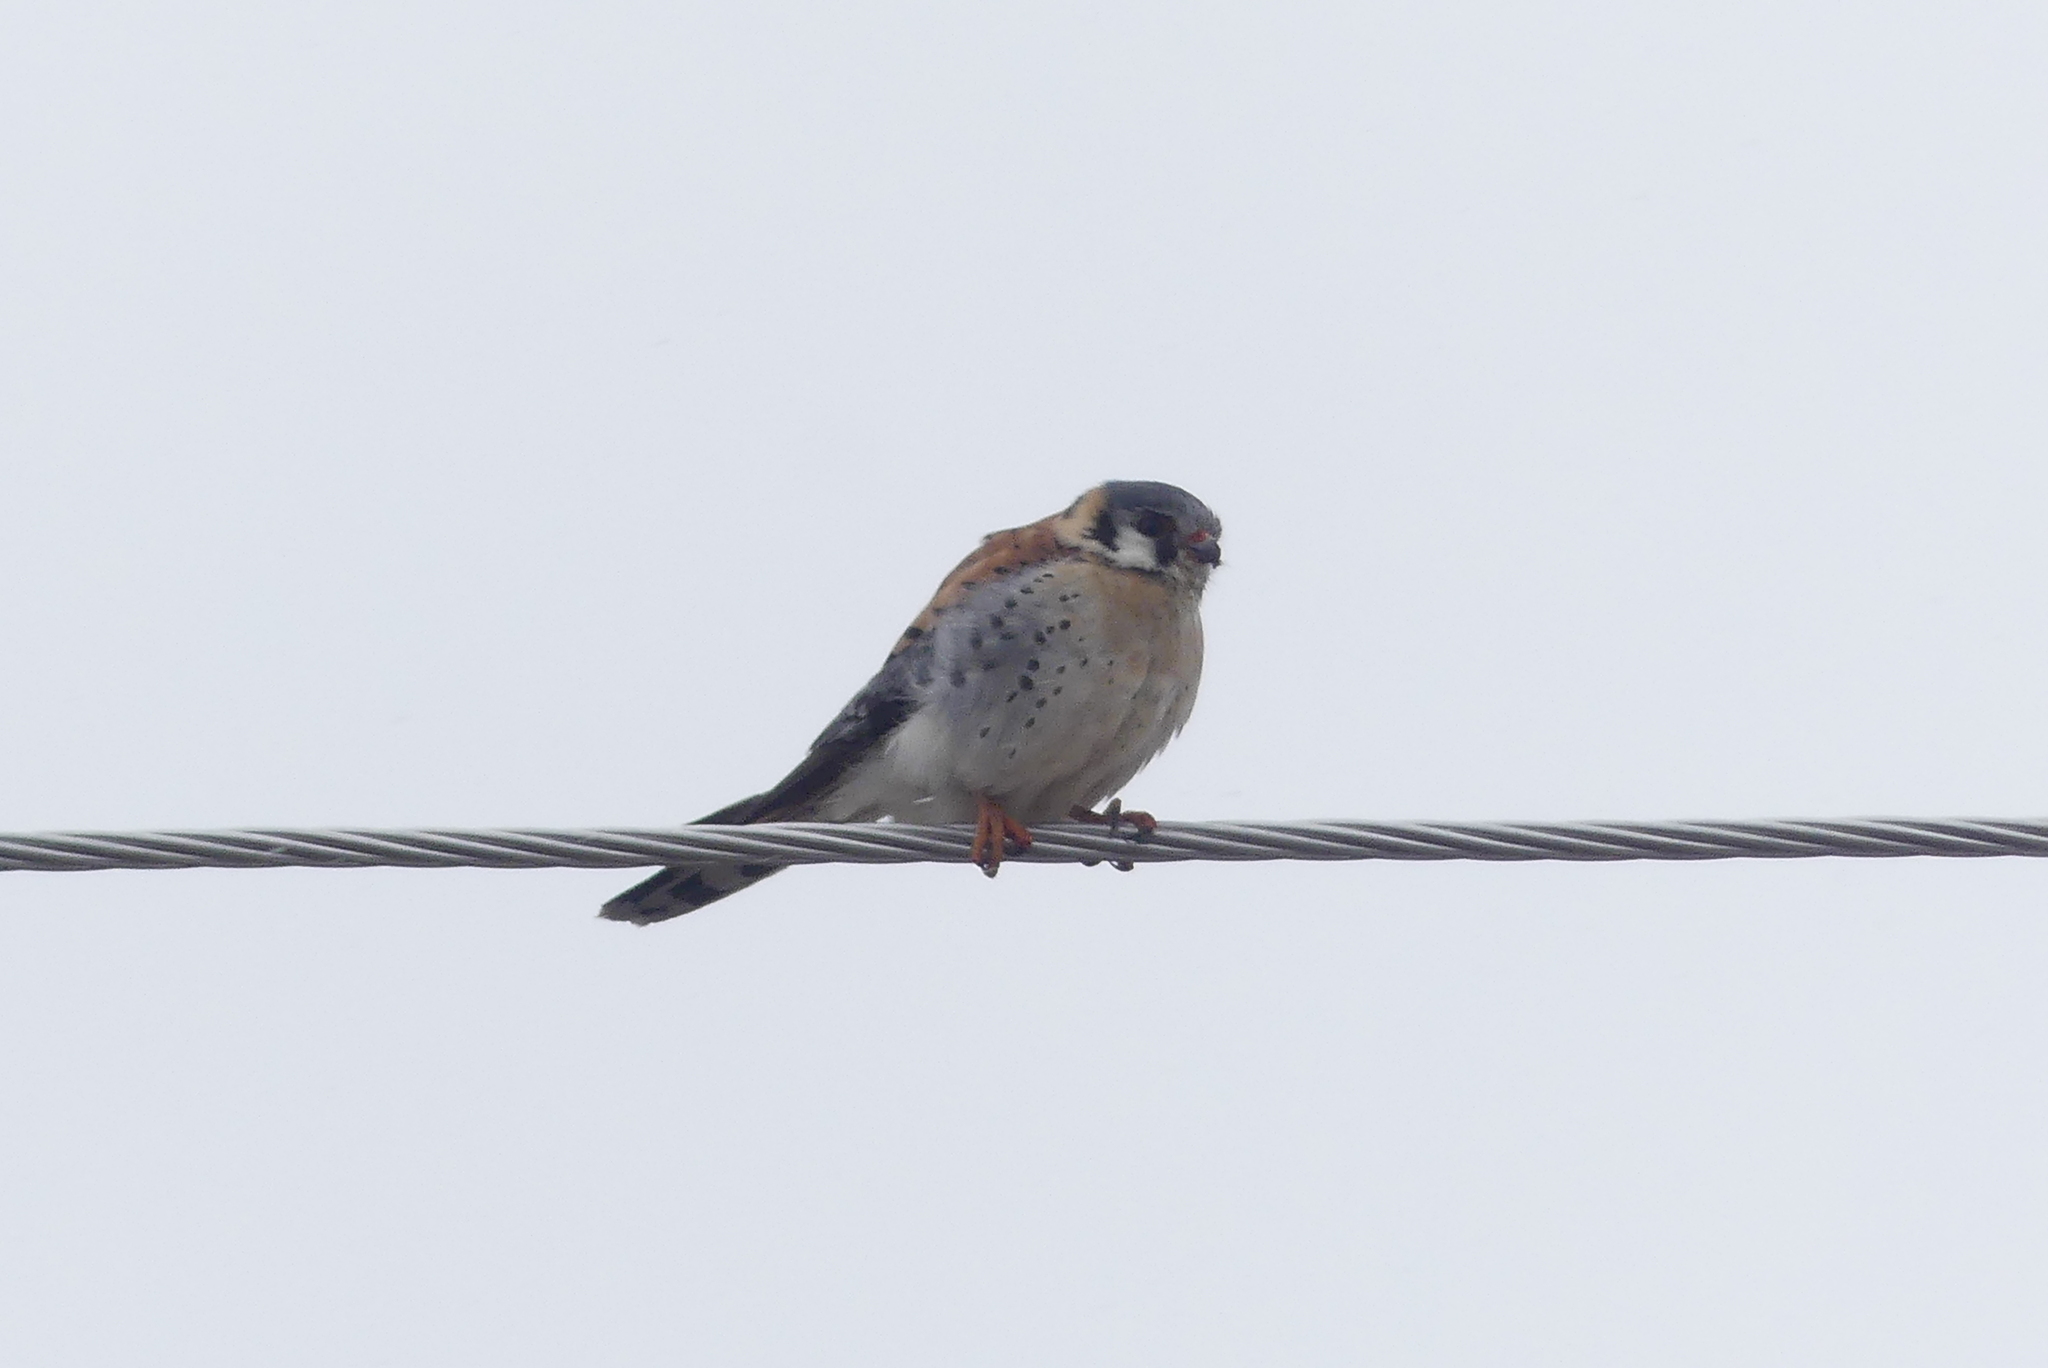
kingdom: Animalia
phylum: Chordata
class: Aves
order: Falconiformes
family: Falconidae
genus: Falco
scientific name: Falco sparverius
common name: American kestrel
